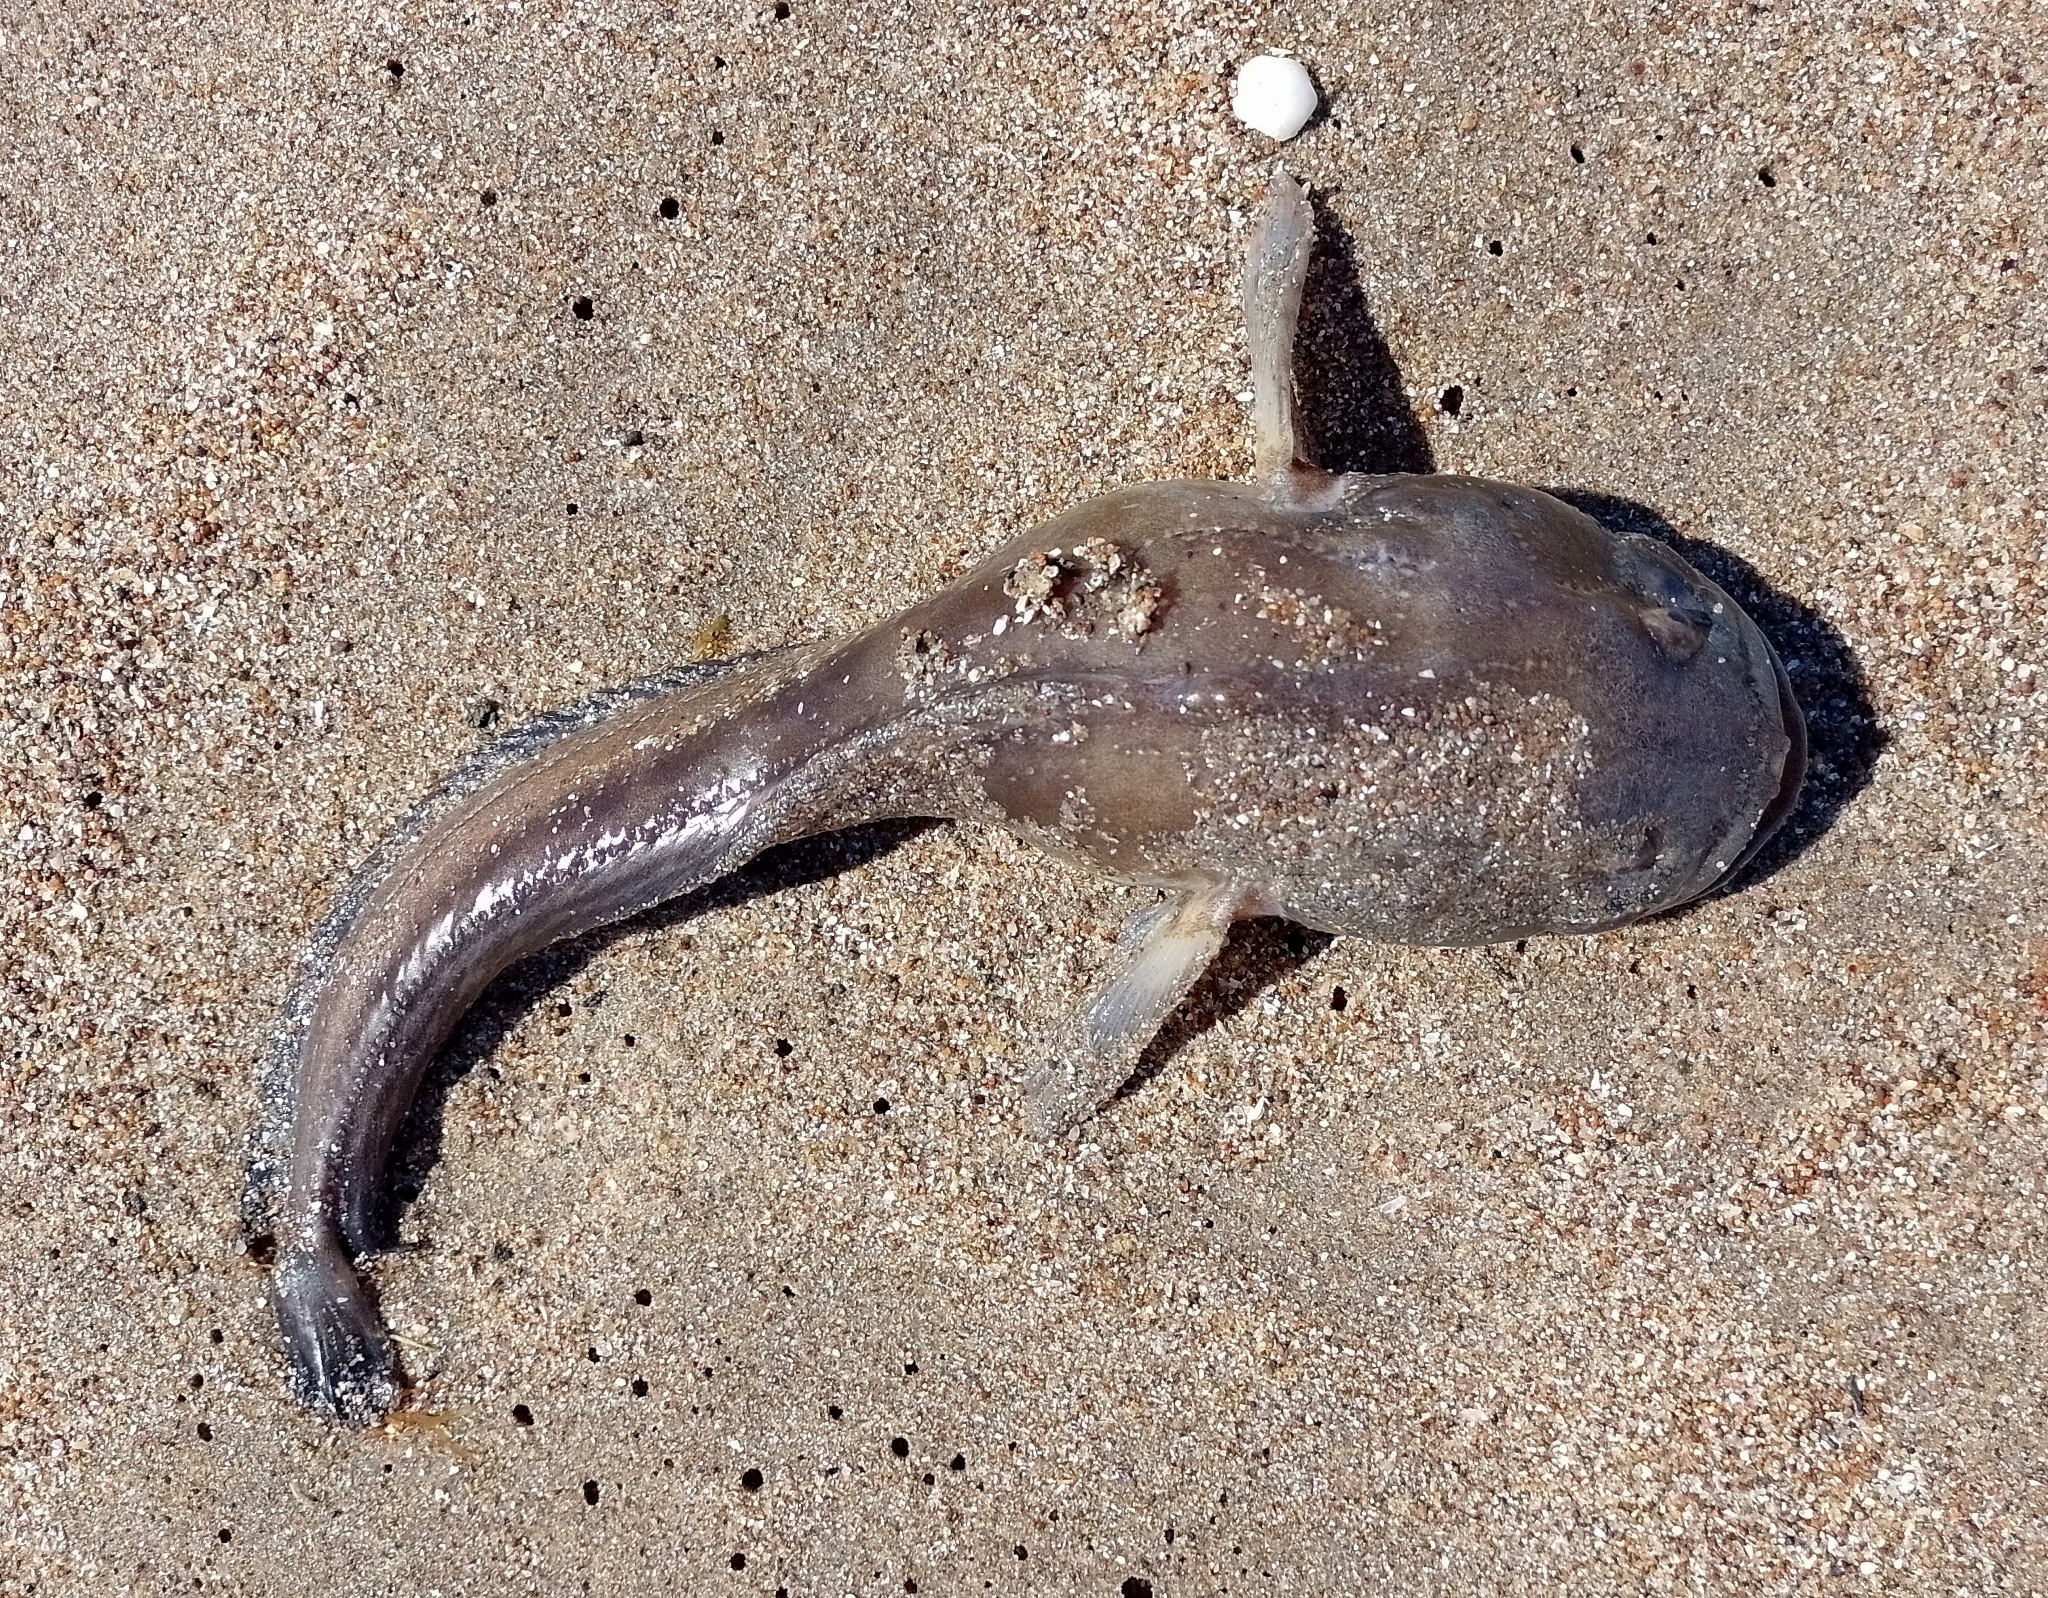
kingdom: Animalia
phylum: Chordata
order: Batrachoidiformes
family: Batrachoididae
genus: Porichthys
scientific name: Porichthys porosissimus
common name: Toadfish
